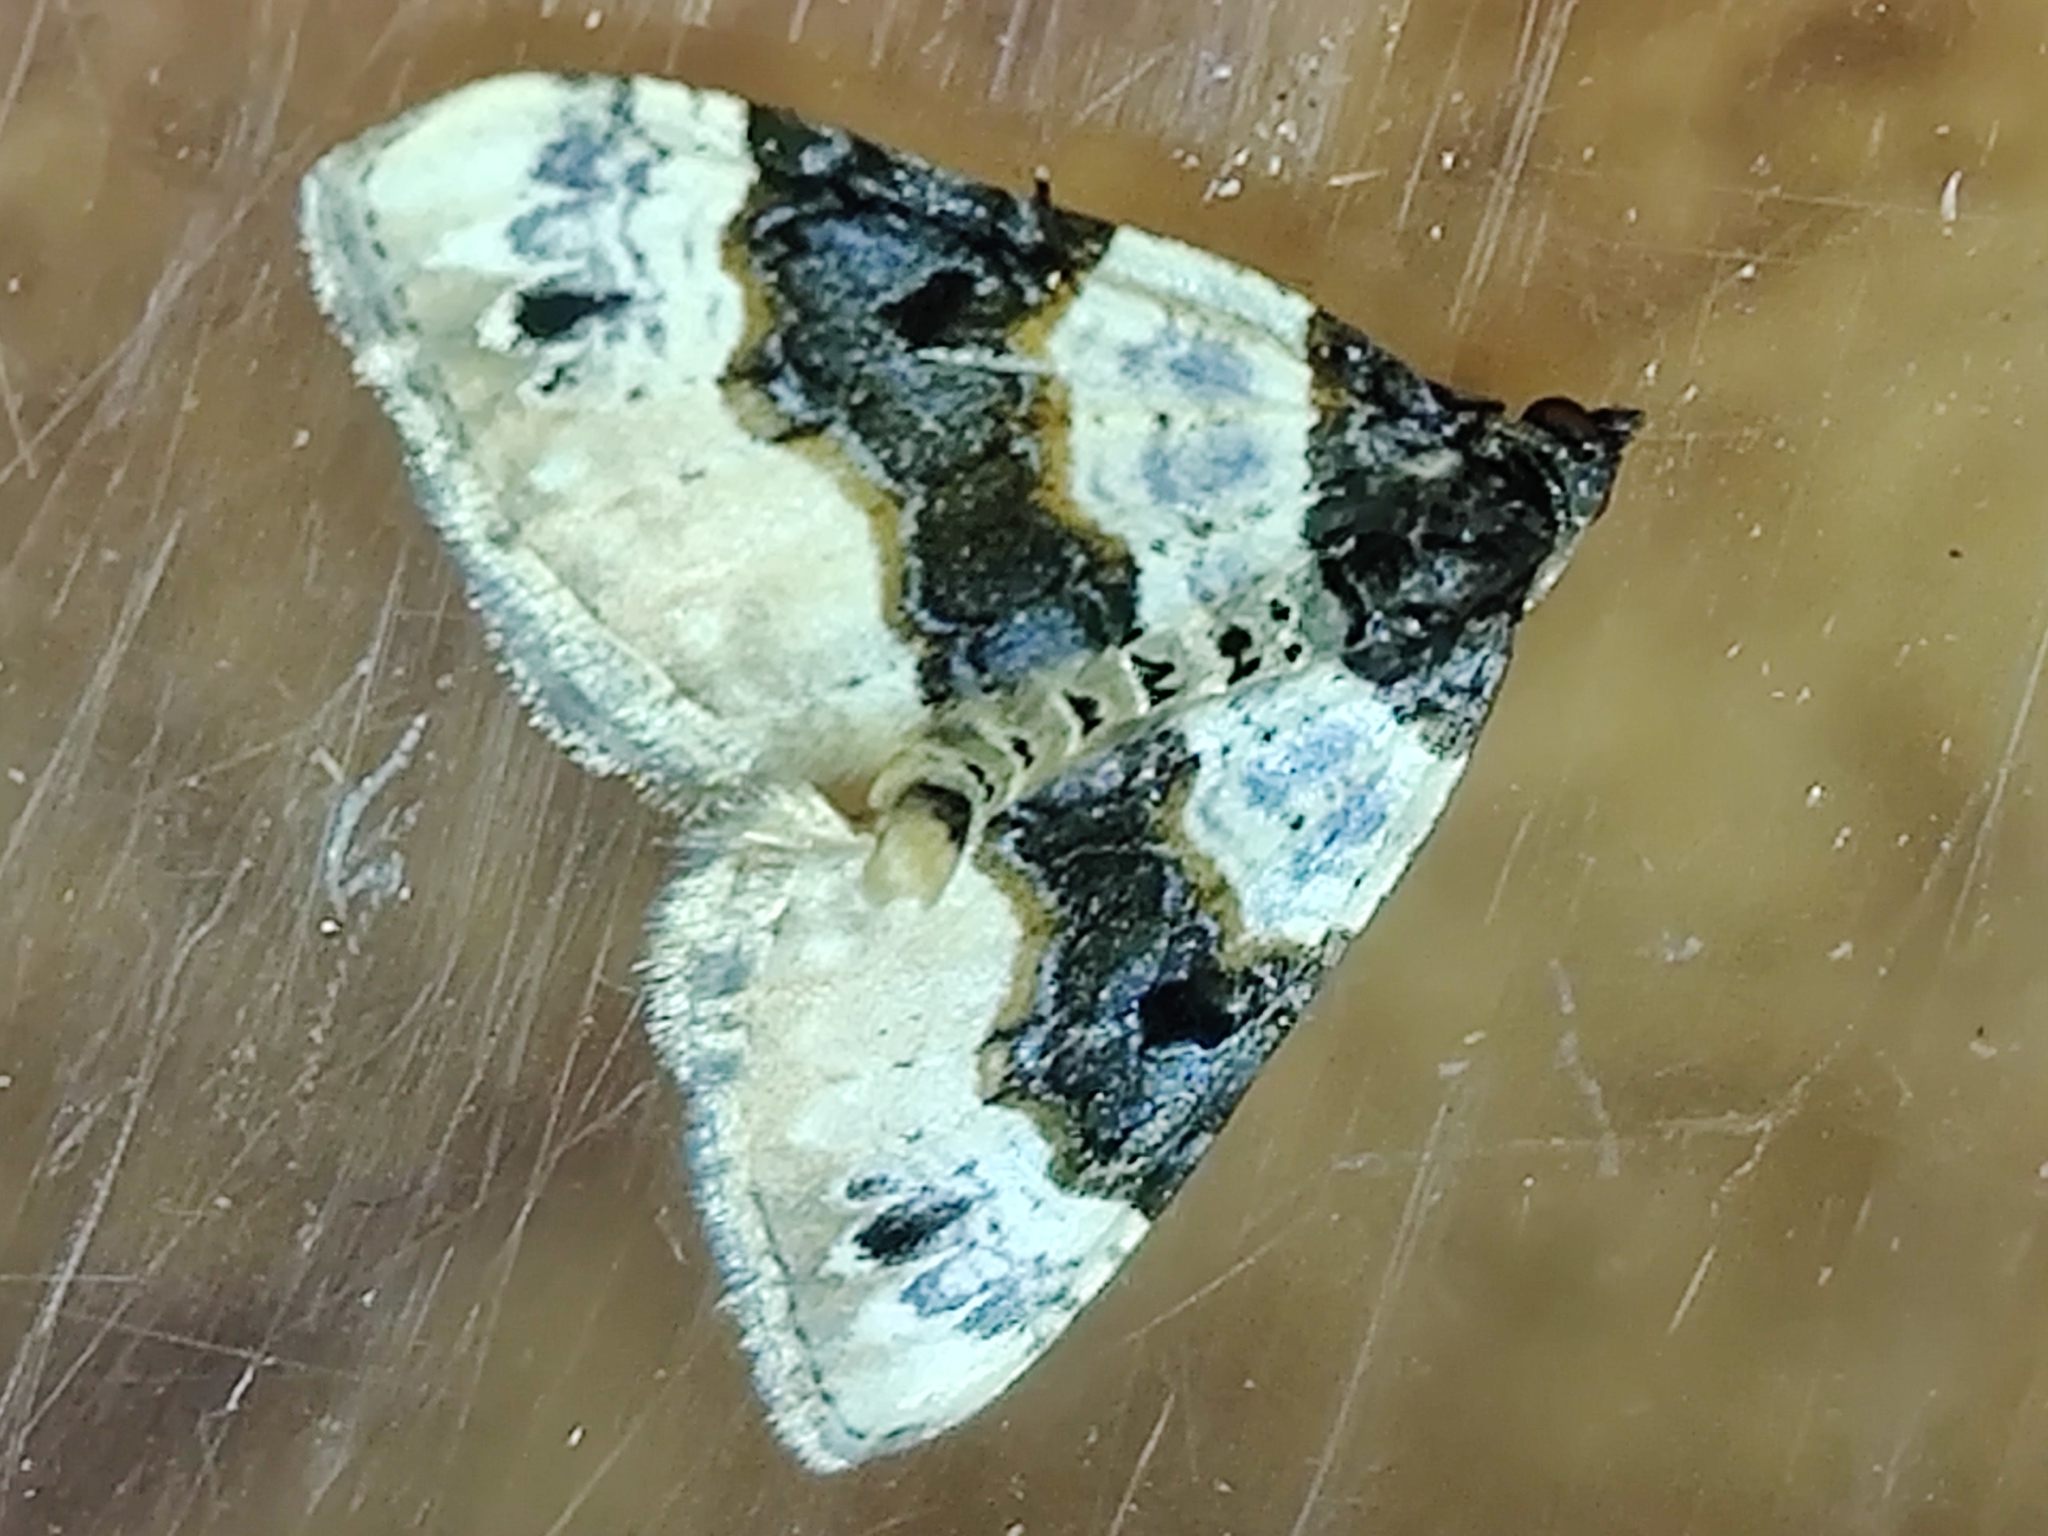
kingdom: Animalia
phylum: Arthropoda
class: Insecta
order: Lepidoptera
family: Geometridae
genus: Cosmorhoe
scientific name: Cosmorhoe ocellata
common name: Purple bar
